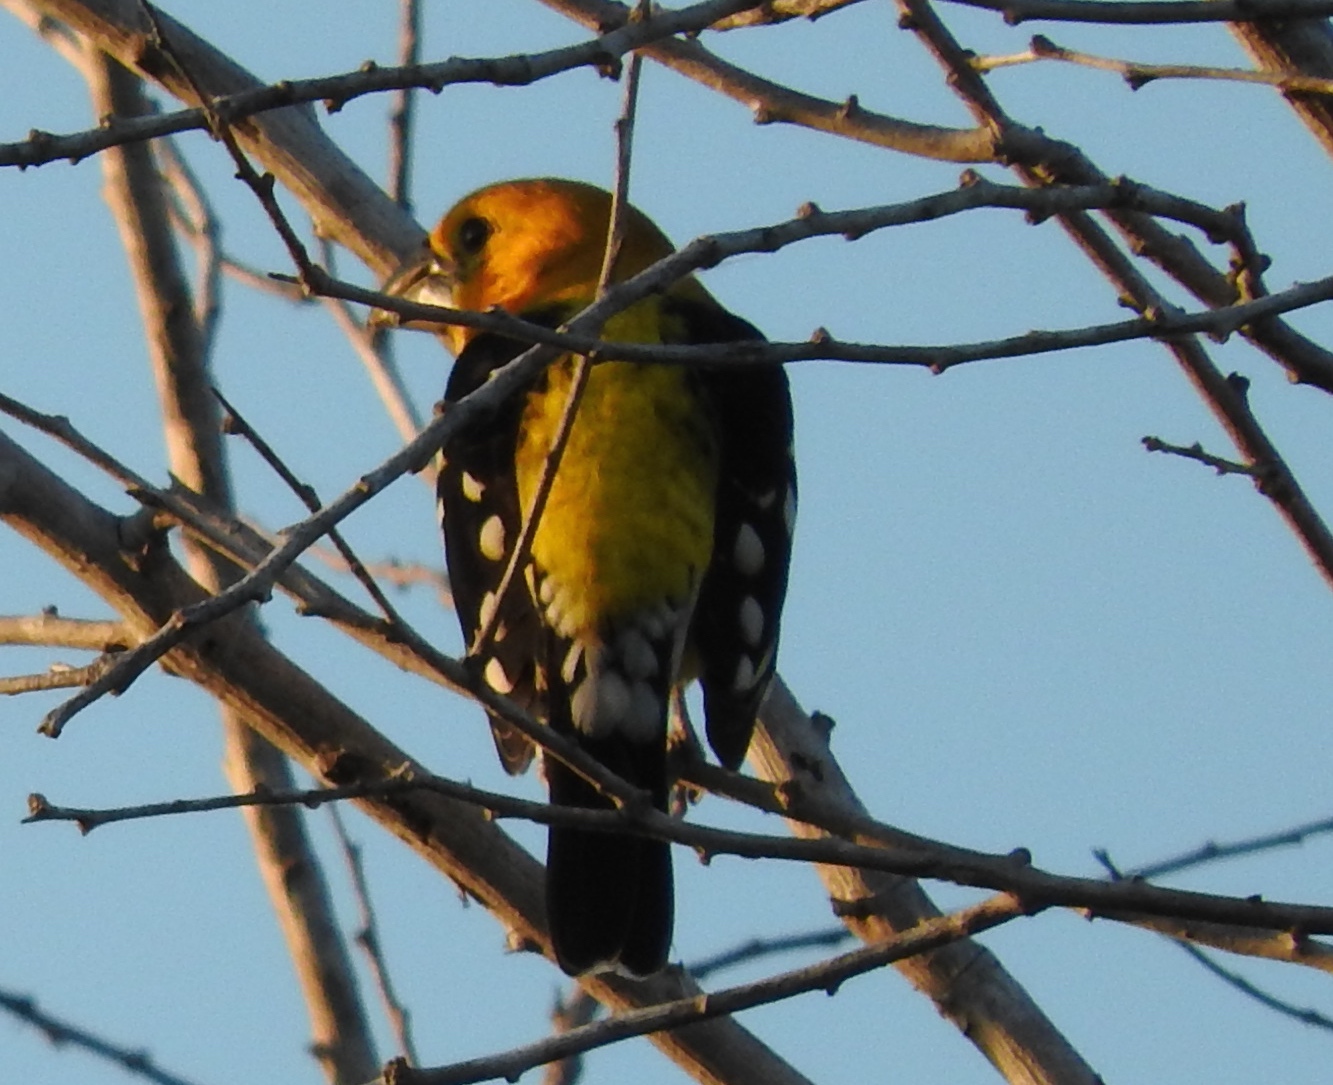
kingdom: Animalia
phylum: Chordata
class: Aves
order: Passeriformes
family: Cardinalidae
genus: Pheucticus
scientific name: Pheucticus chrysopeplus
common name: Yellow grosbeak
